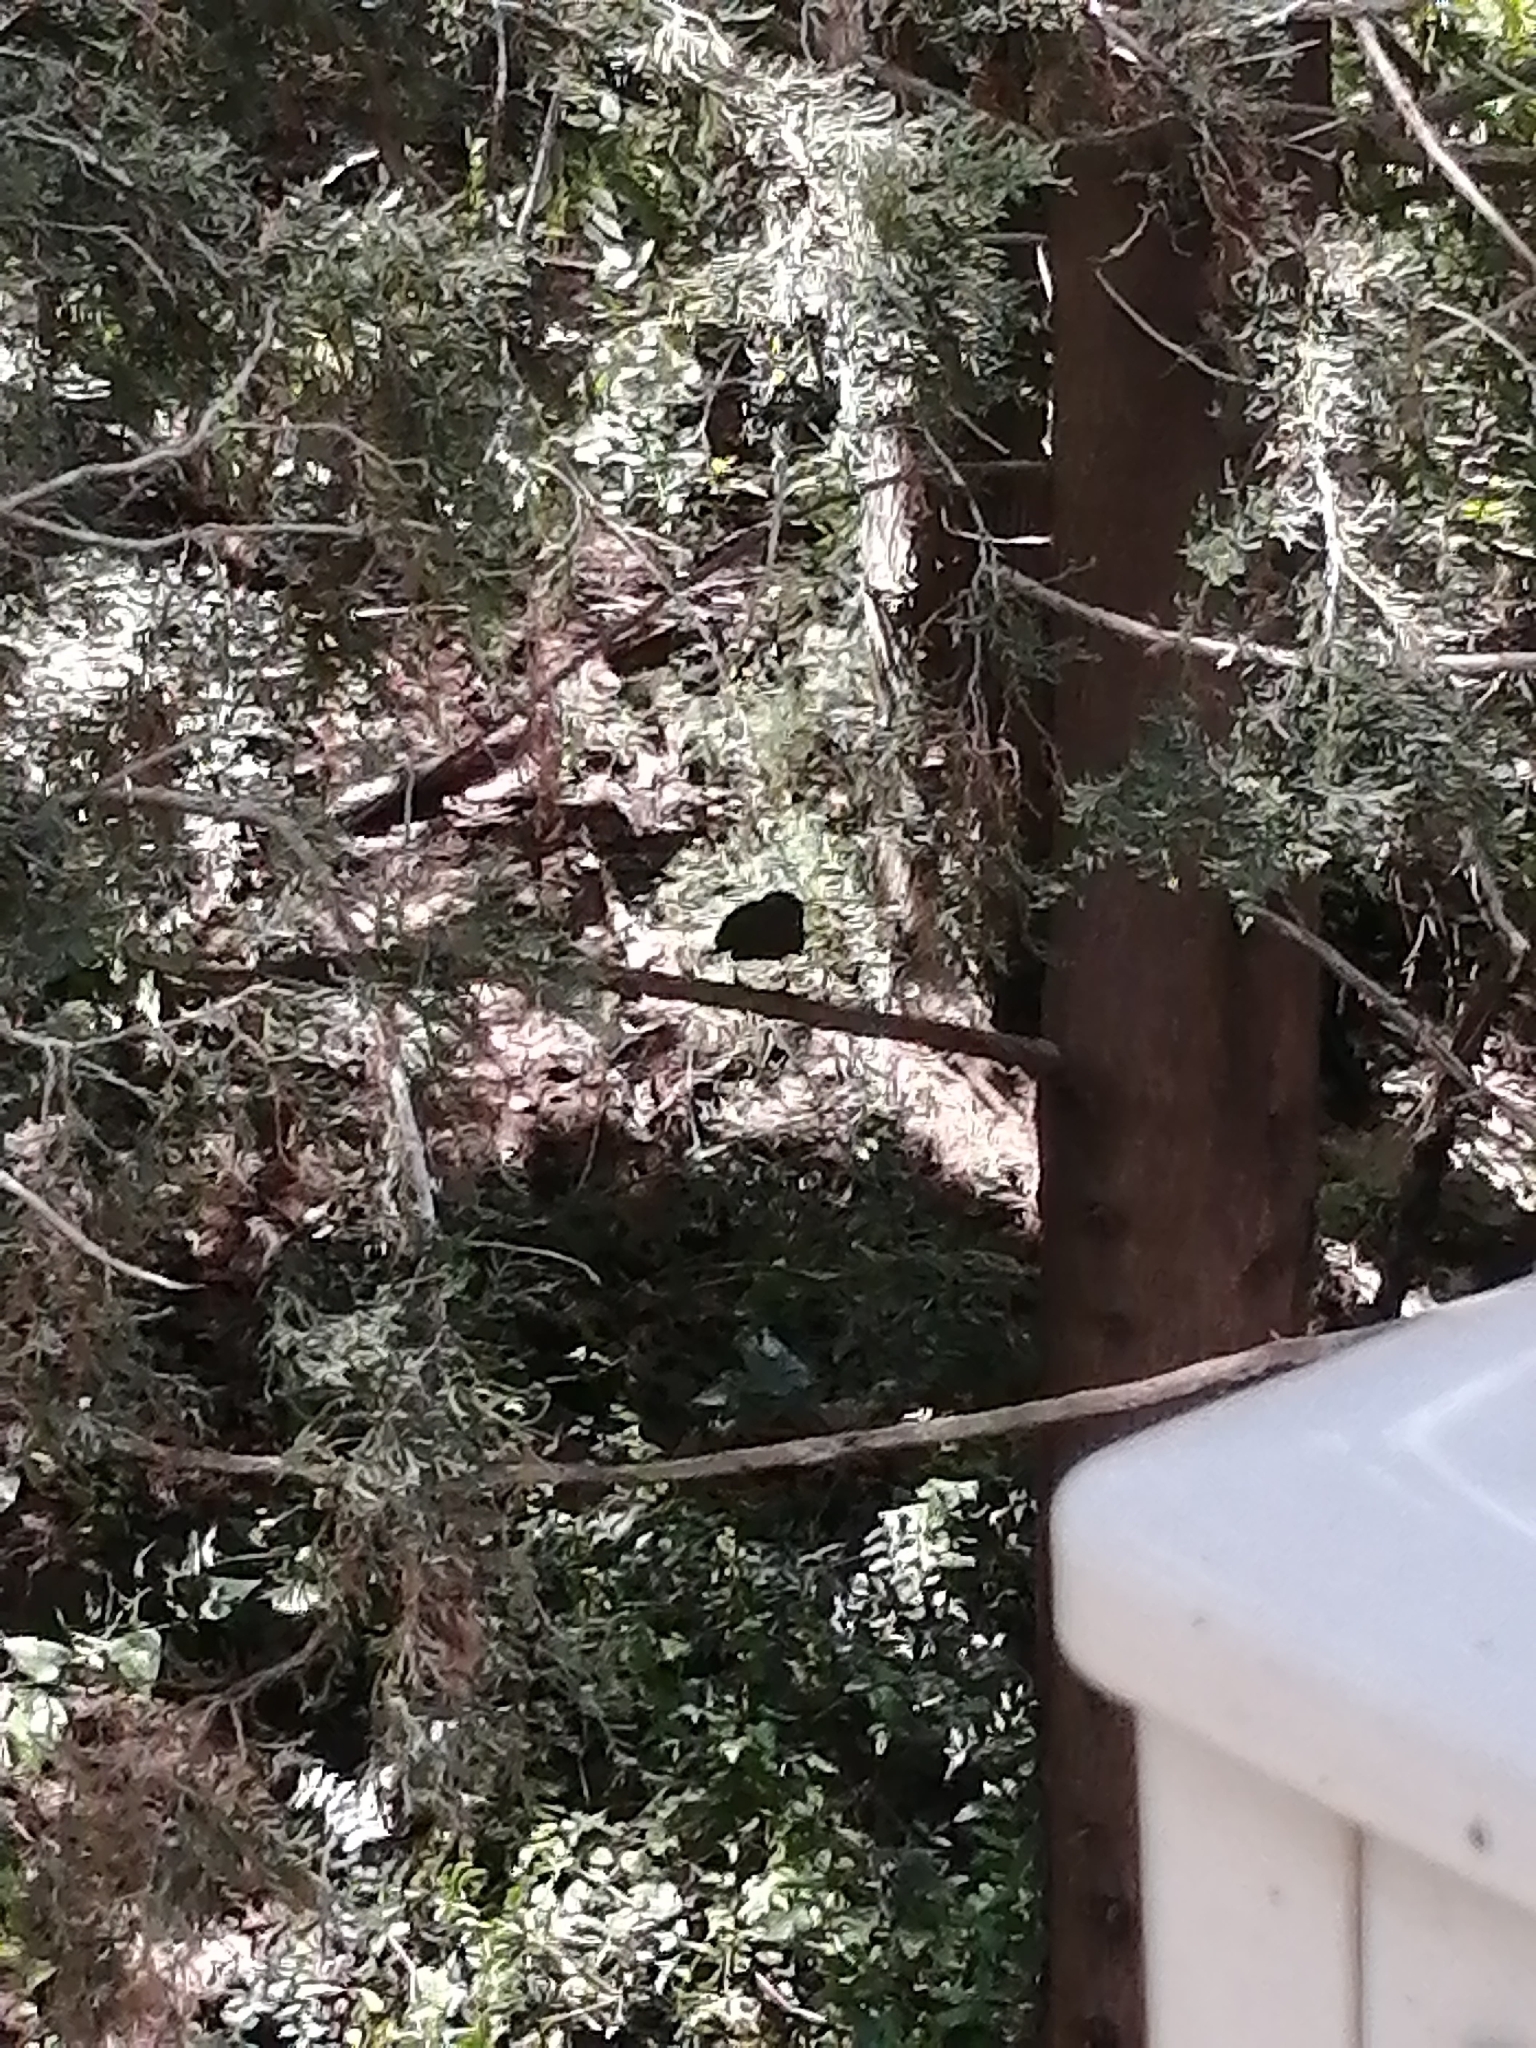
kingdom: Animalia
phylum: Chordata
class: Aves
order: Passeriformes
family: Turdidae
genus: Turdus
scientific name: Turdus merula
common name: Common blackbird
